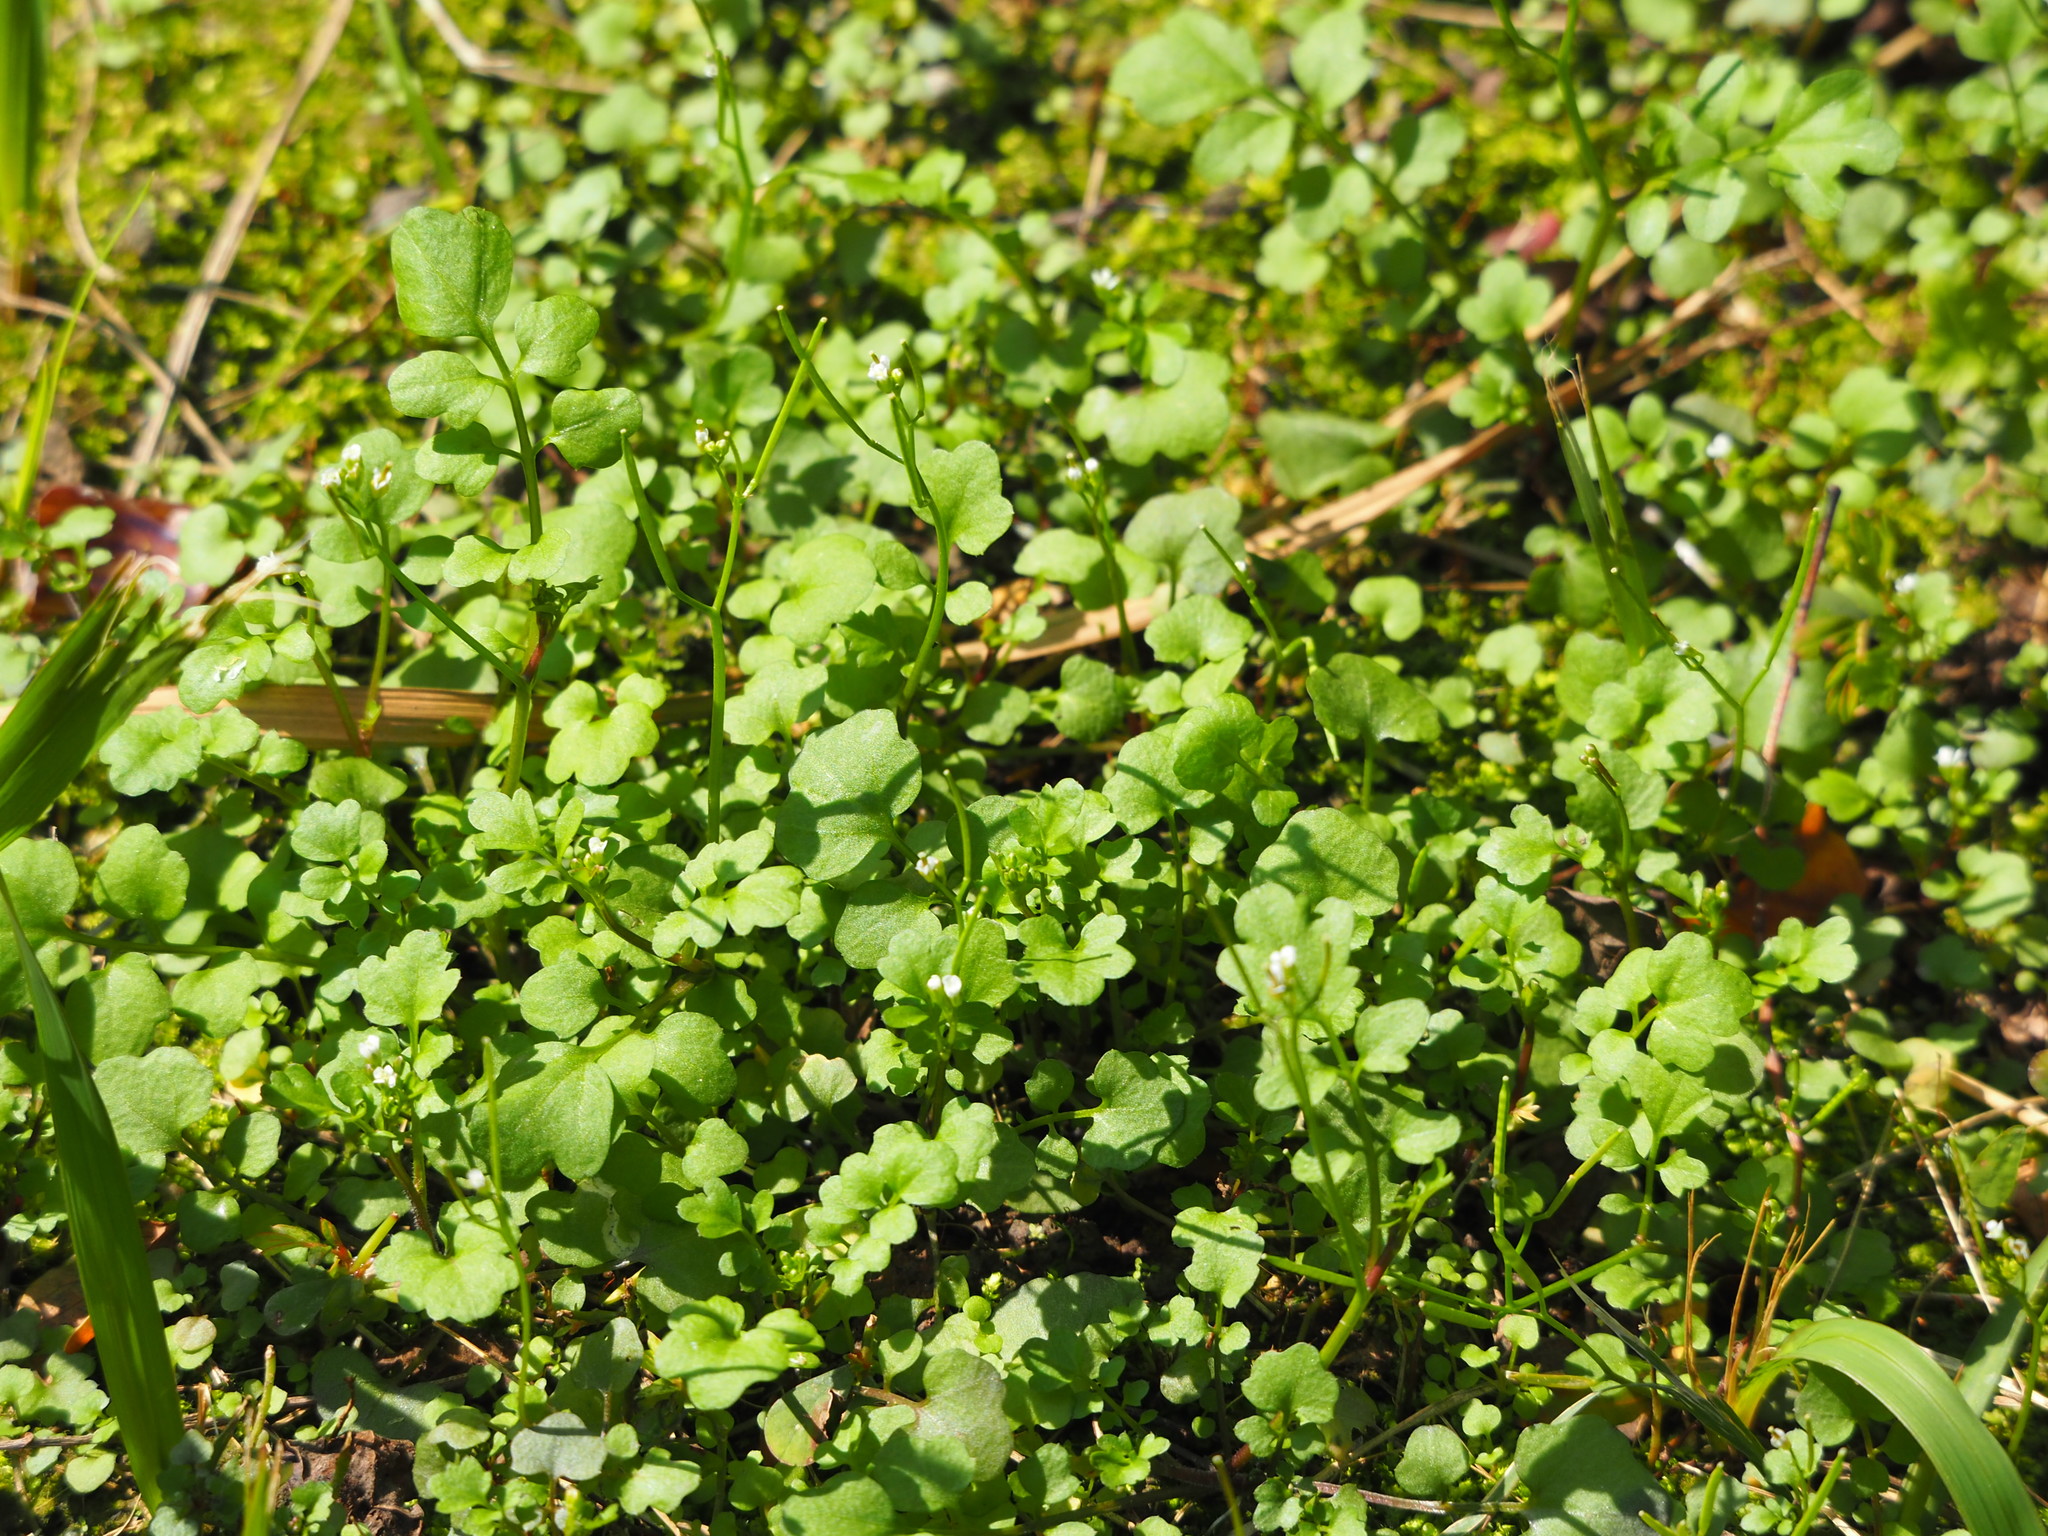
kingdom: Plantae
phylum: Tracheophyta
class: Magnoliopsida
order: Brassicales
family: Brassicaceae
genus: Cardamine
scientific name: Cardamine flexuosa
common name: Woodland bittercress
